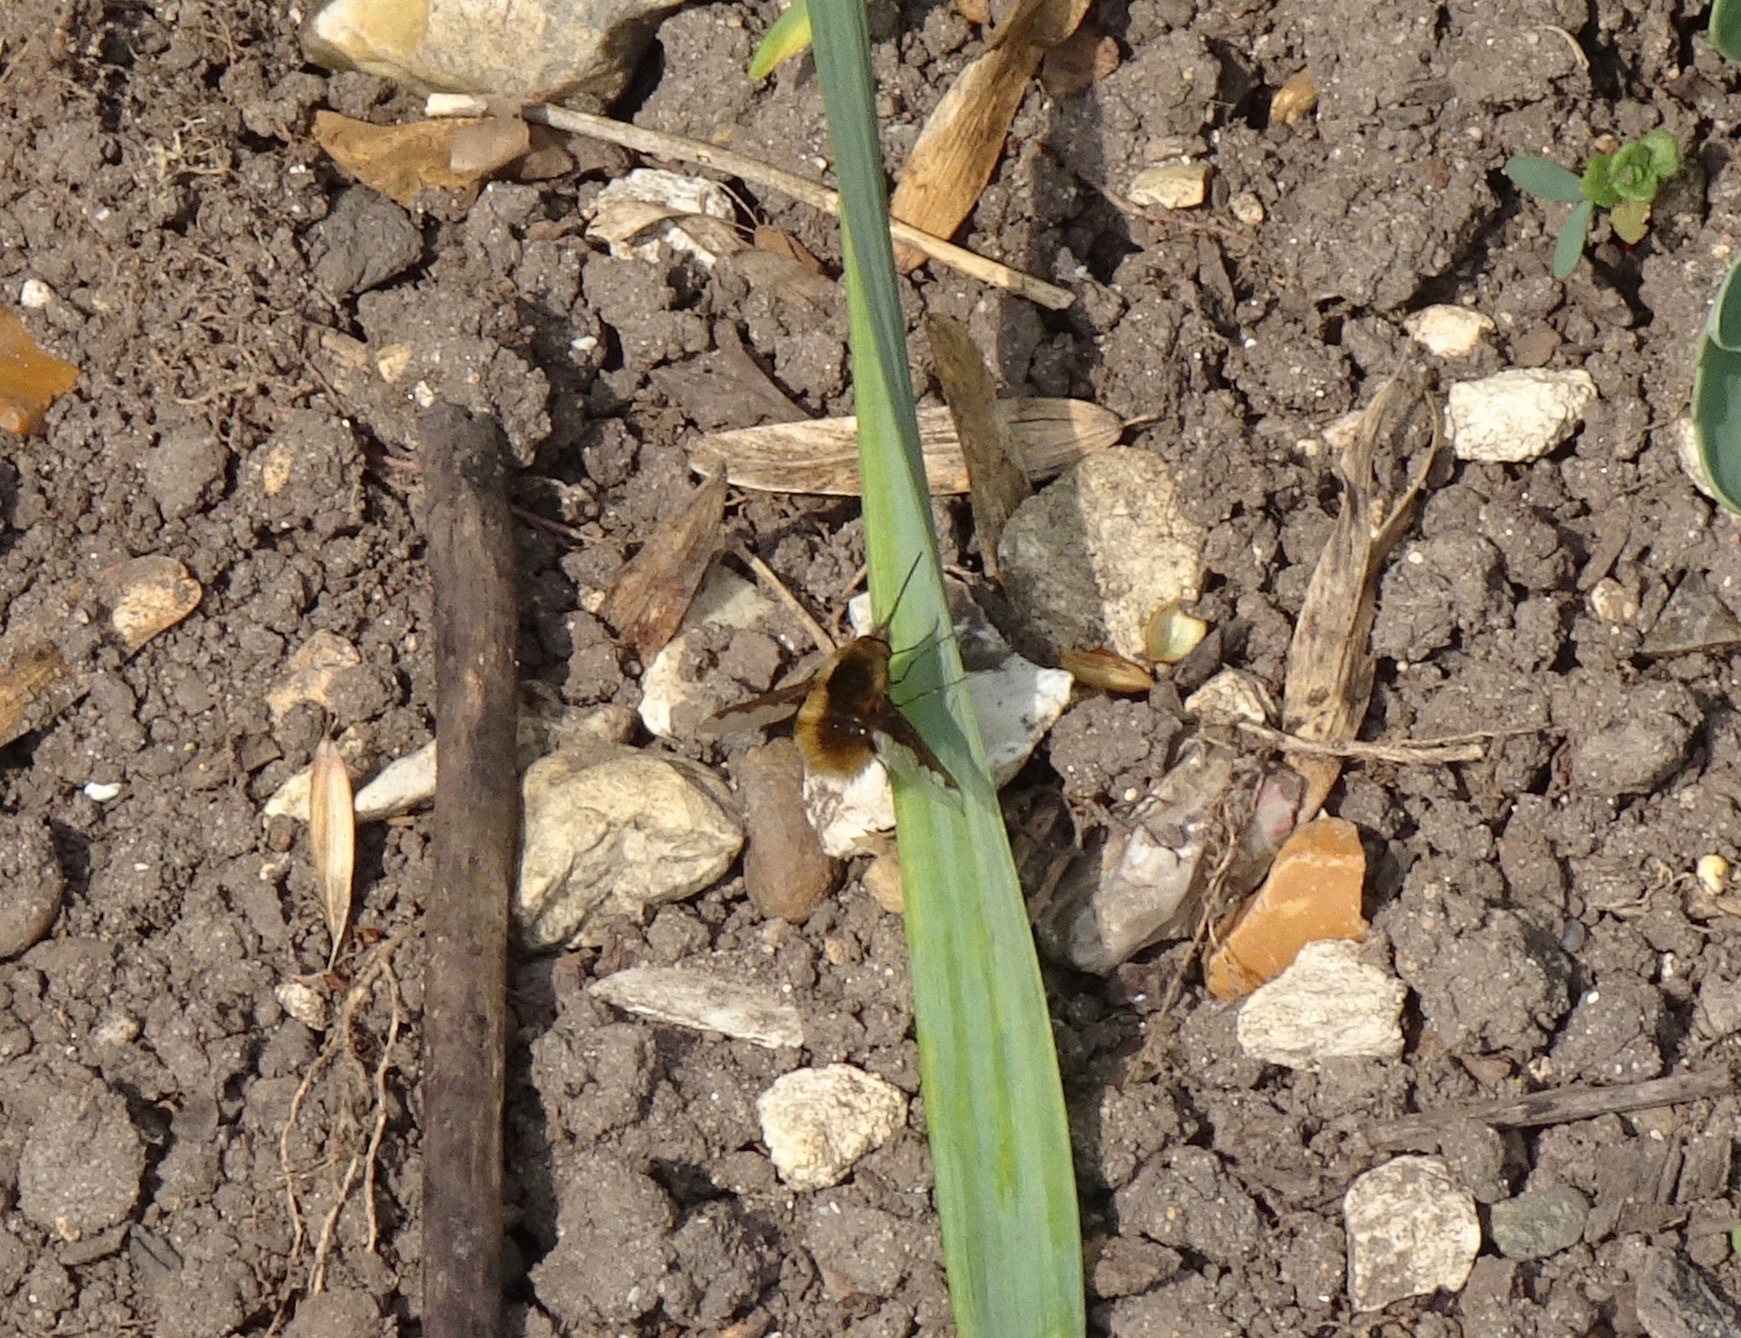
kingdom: Animalia
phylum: Arthropoda
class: Insecta
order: Diptera
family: Bombyliidae
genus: Bombylius
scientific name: Bombylius major
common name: Bee fly
